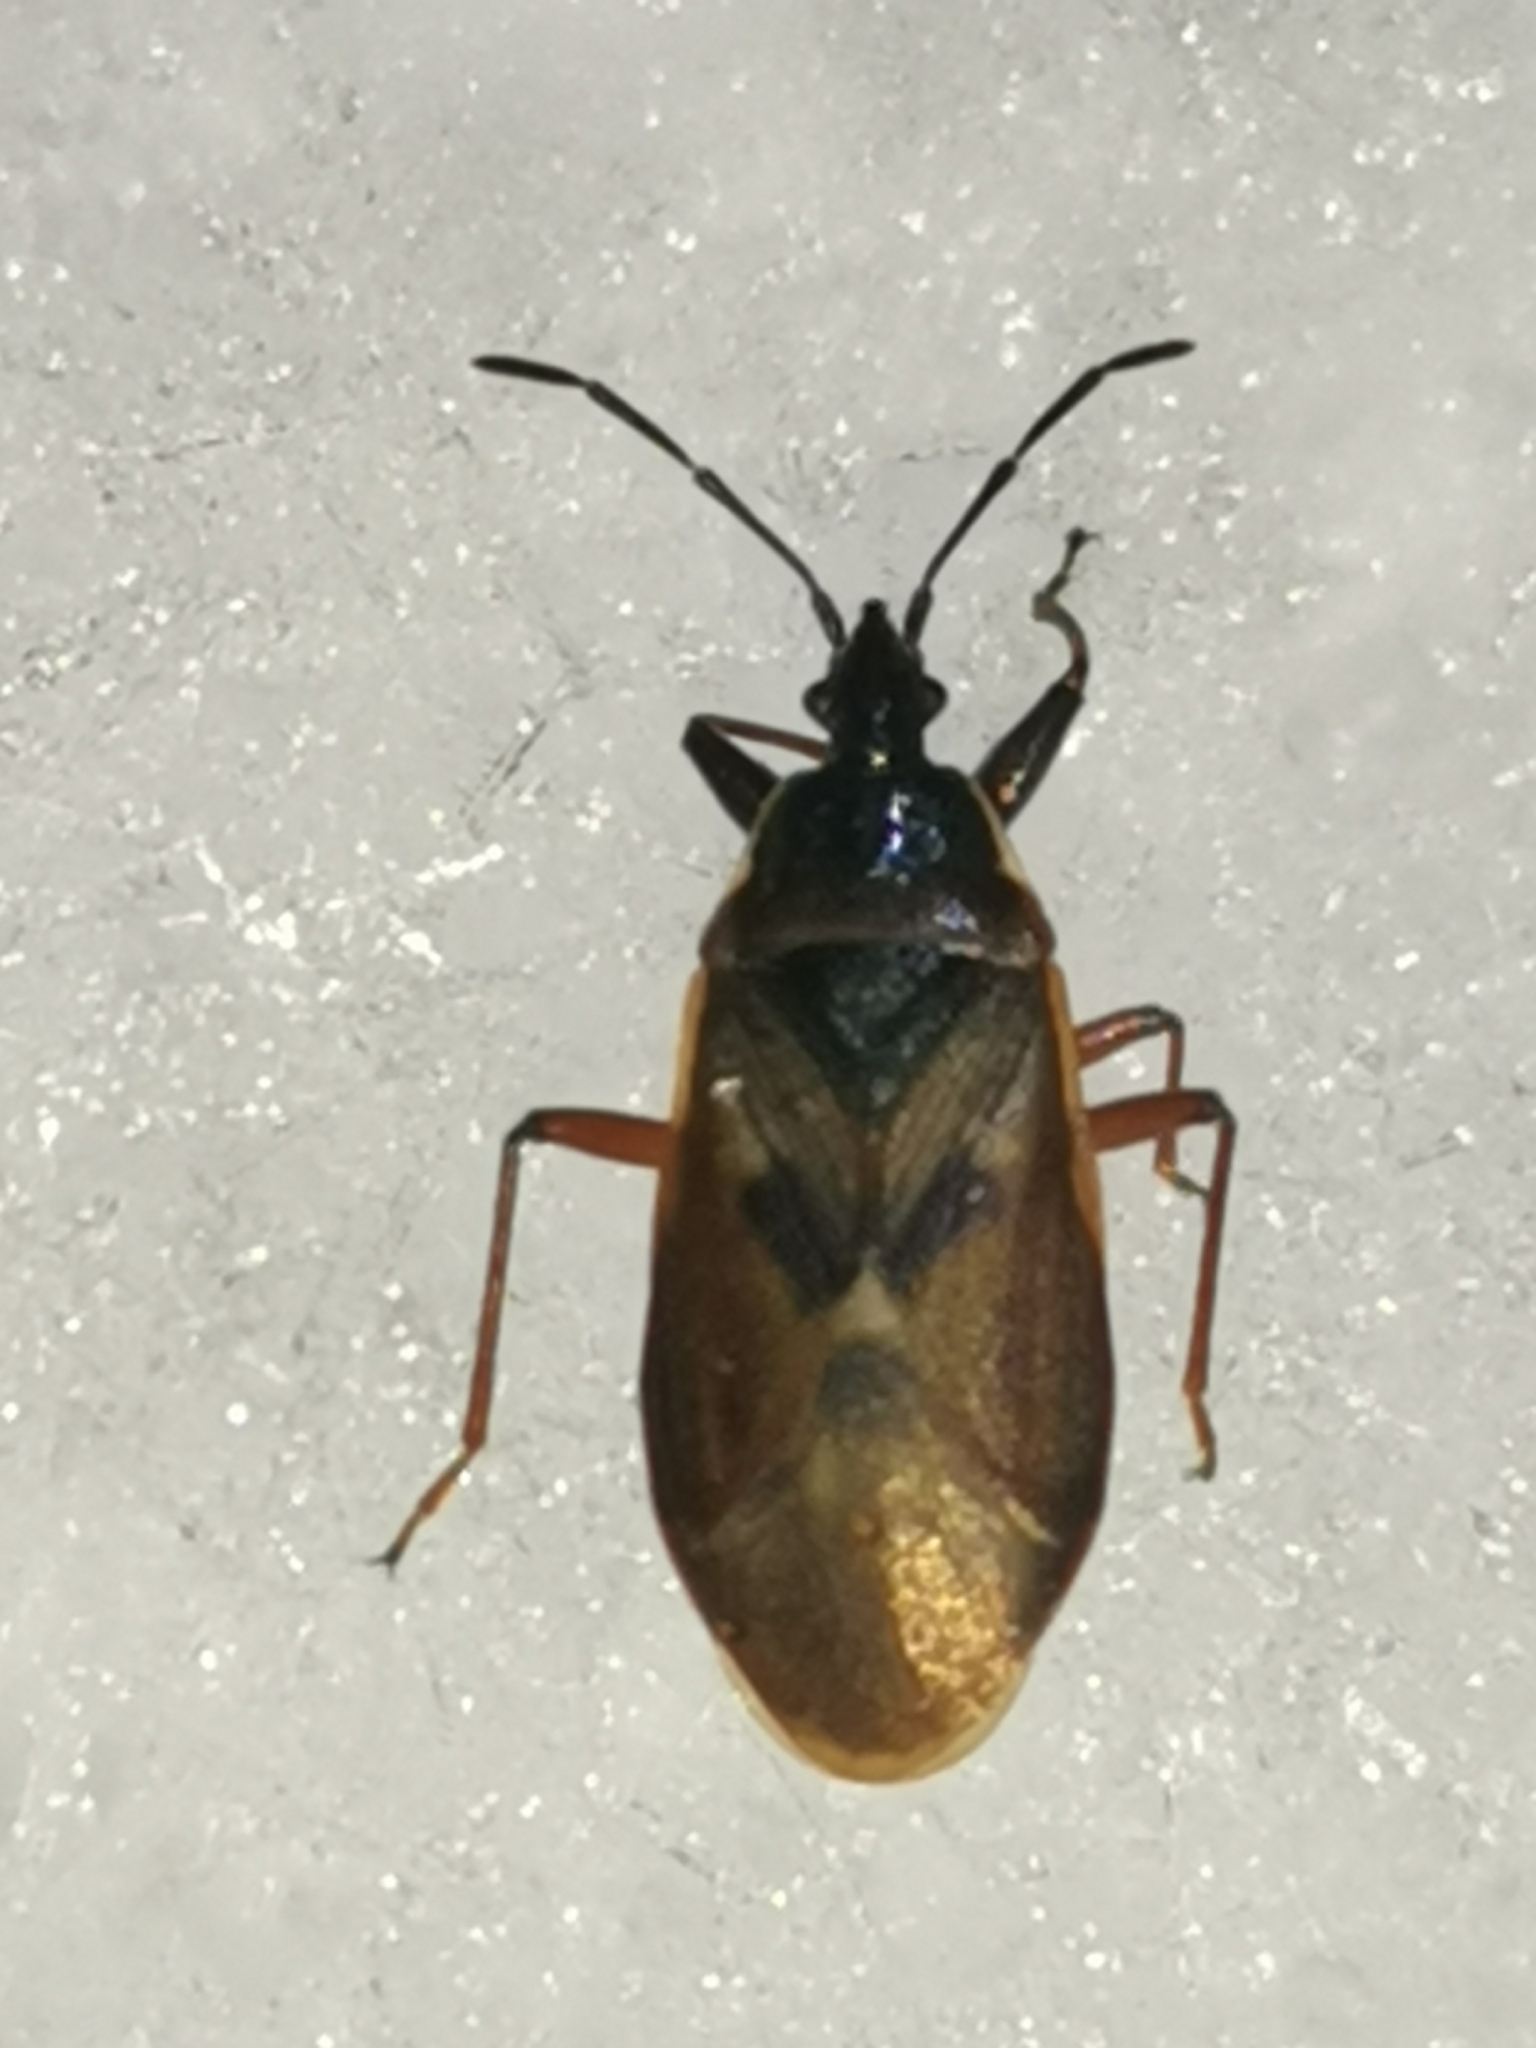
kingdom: Animalia
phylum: Arthropoda
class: Insecta
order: Hemiptera
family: Rhyparochromidae
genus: Gastrodes
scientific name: Gastrodes abietum
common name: Spruce cone bug
